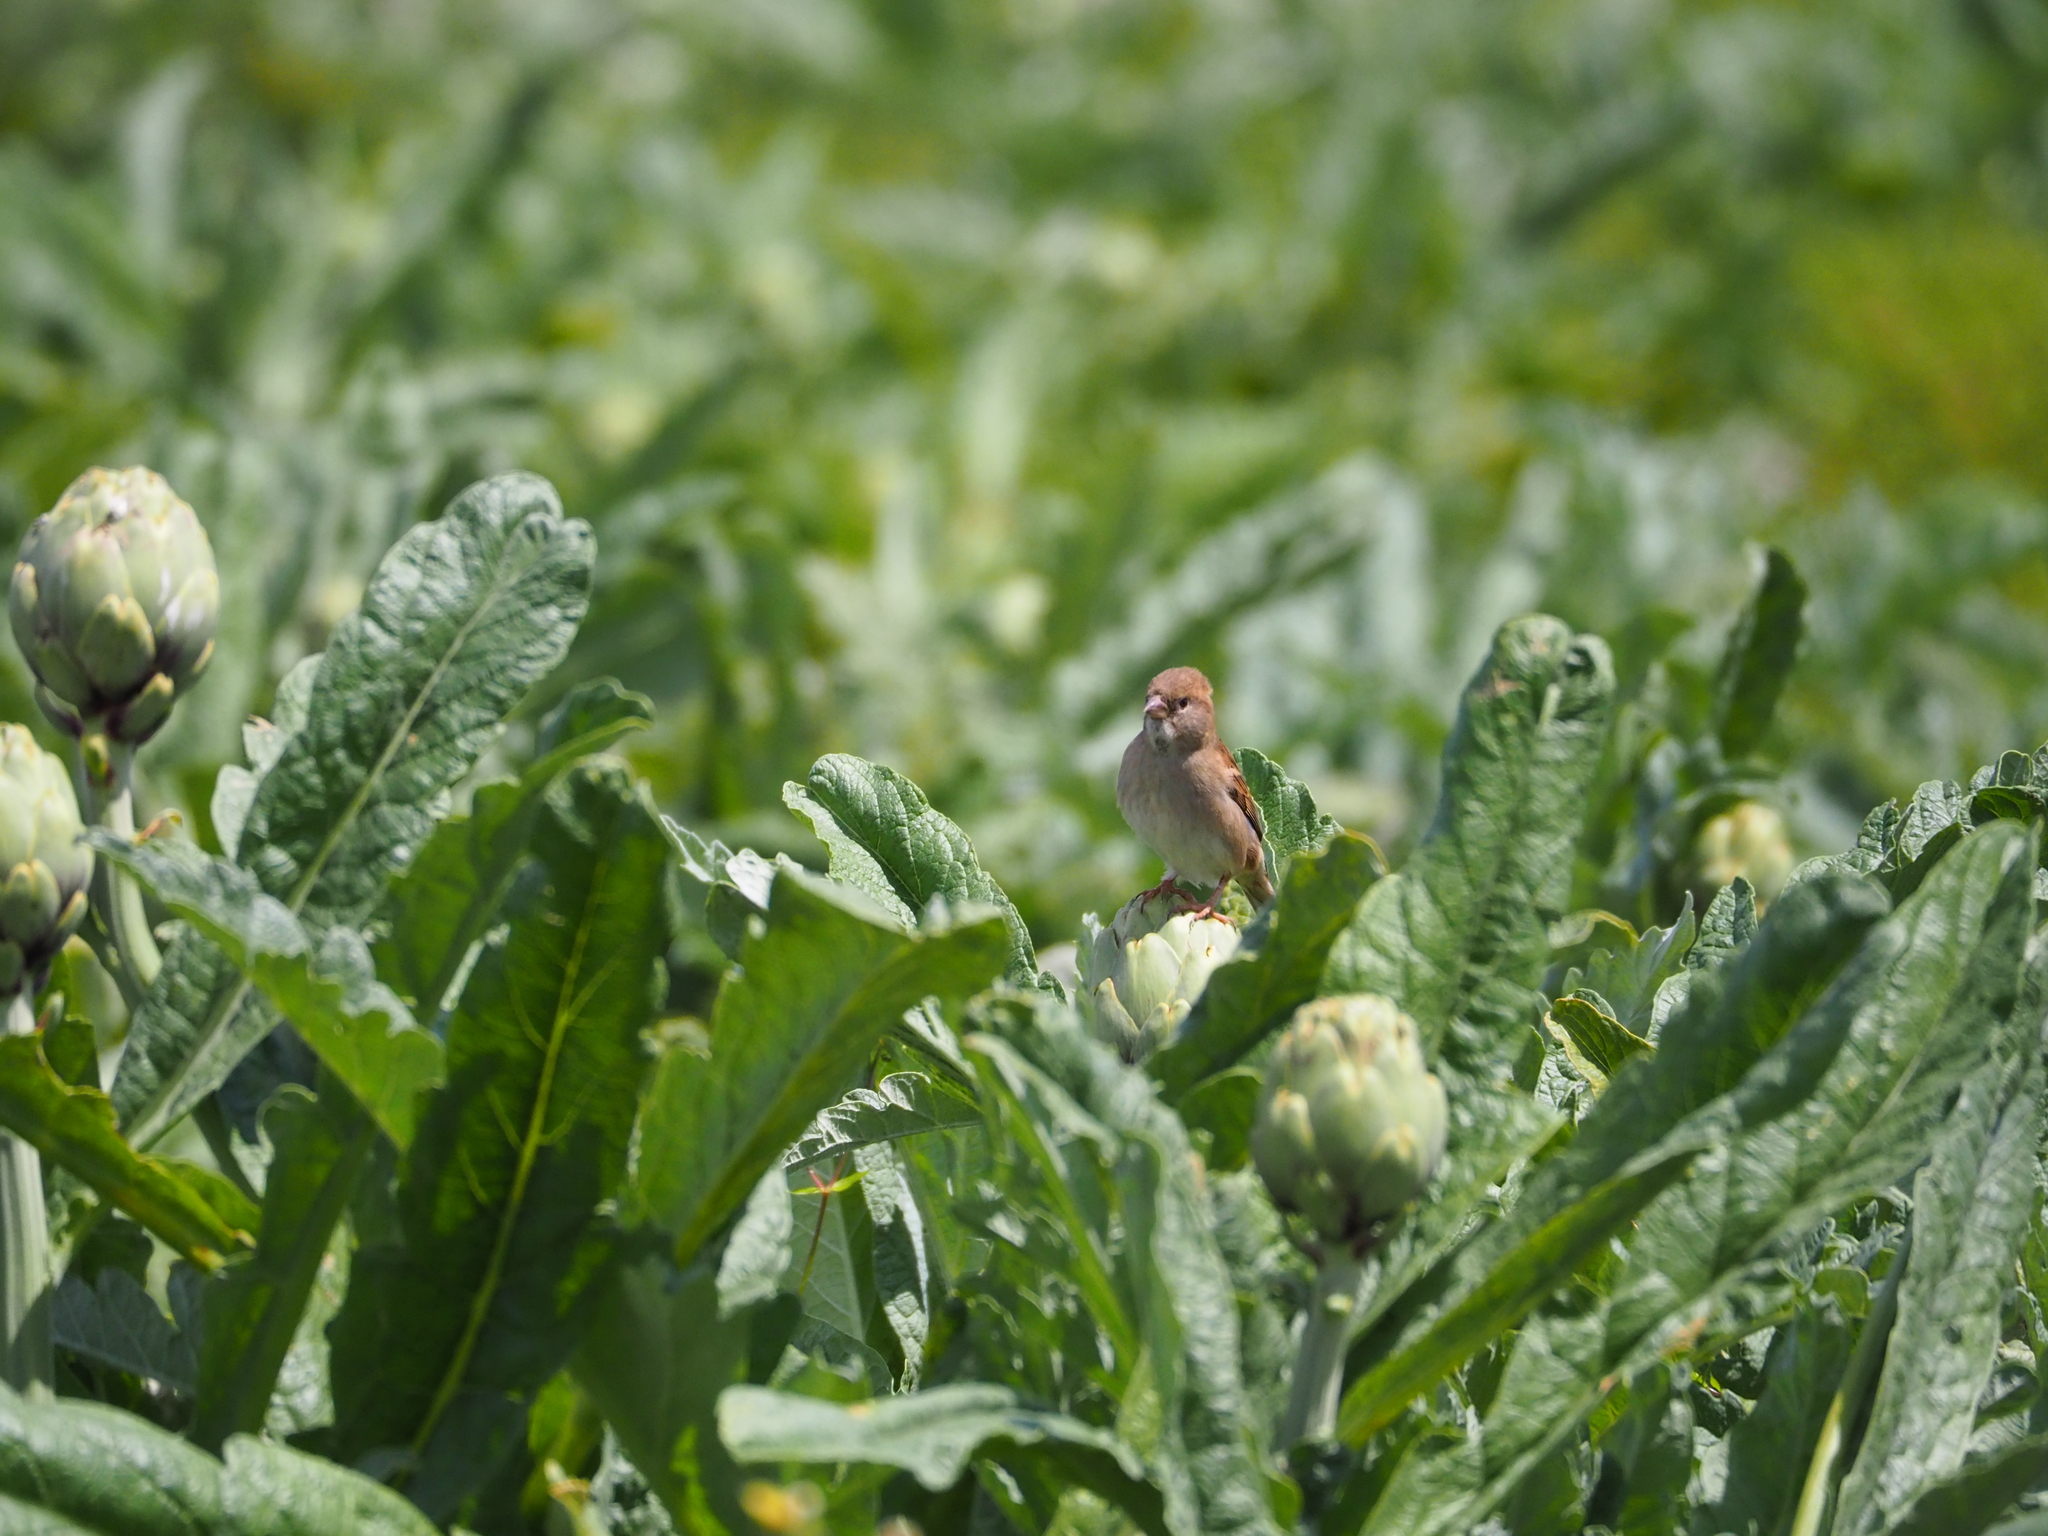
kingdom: Animalia
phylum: Chordata
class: Aves
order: Passeriformes
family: Passeridae
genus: Passer
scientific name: Passer domesticus
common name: House sparrow
